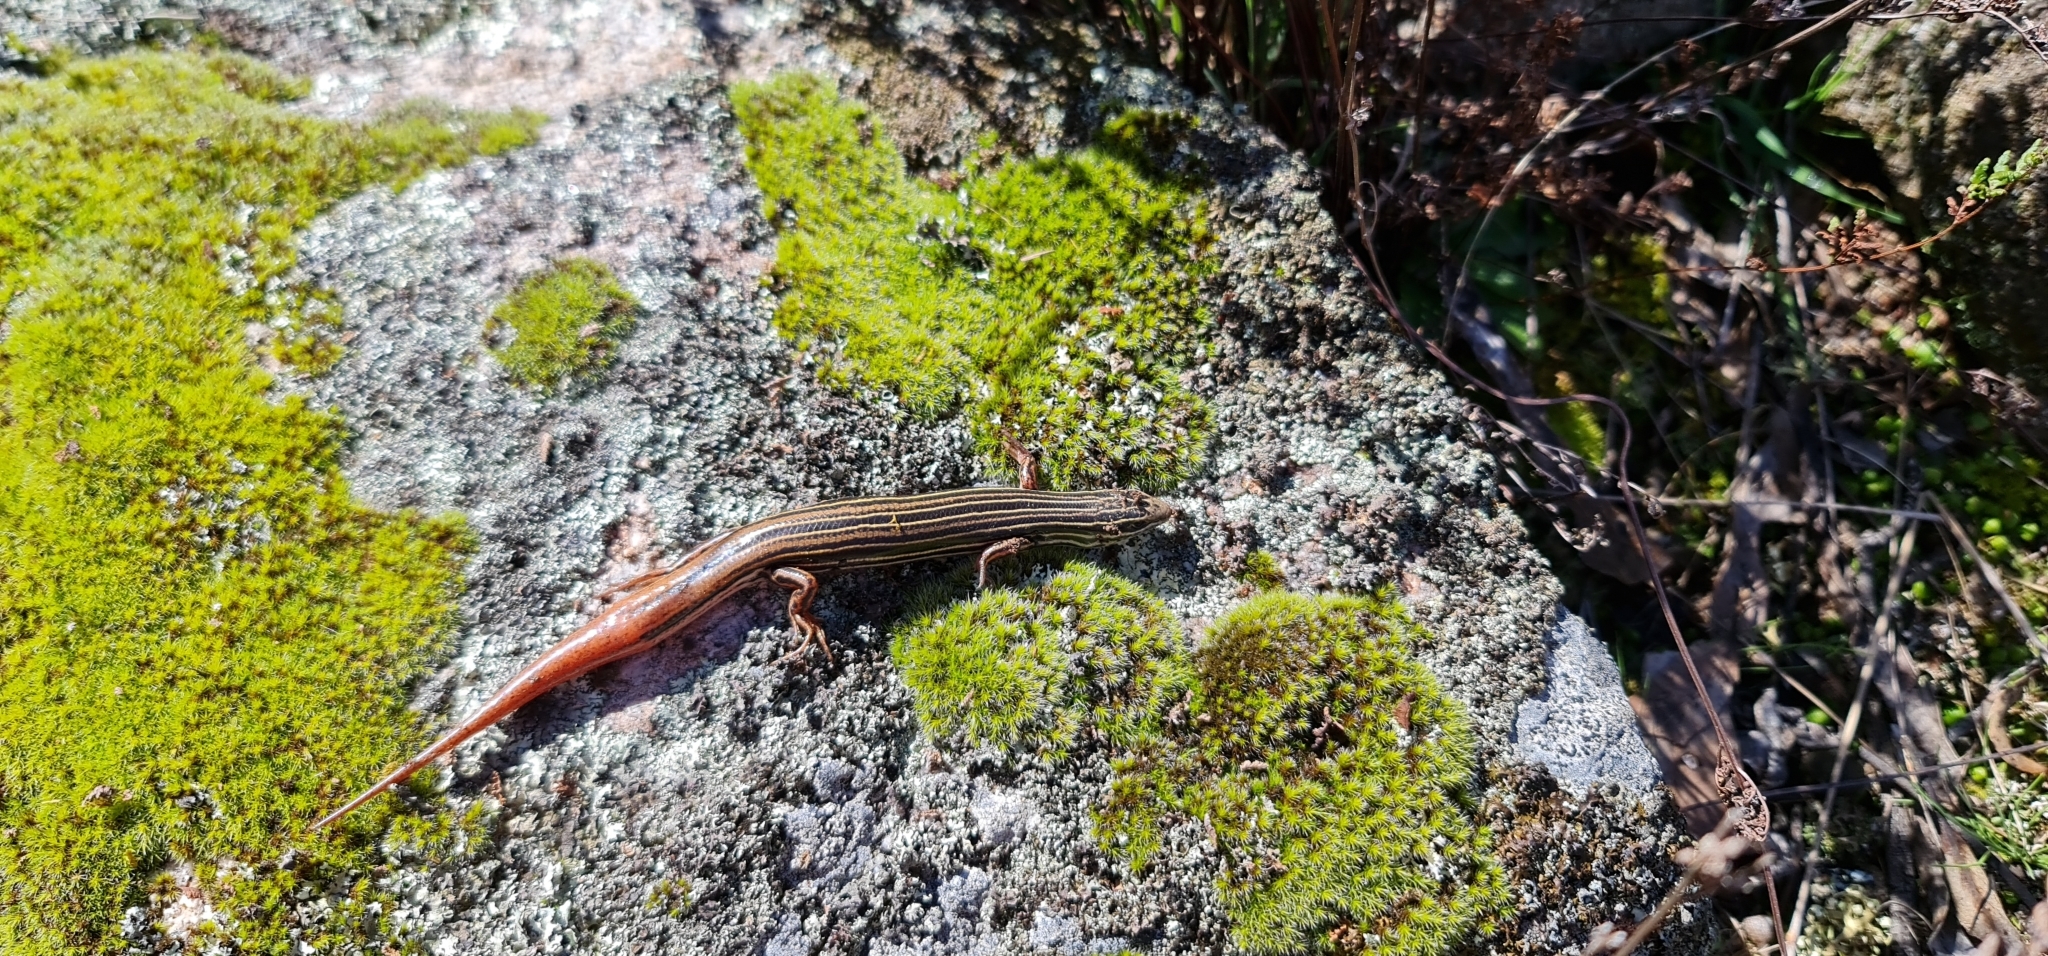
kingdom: Animalia
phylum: Chordata
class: Squamata
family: Scincidae
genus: Ctenotus
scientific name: Ctenotus taeniolatus
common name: Copper-tailed skink
